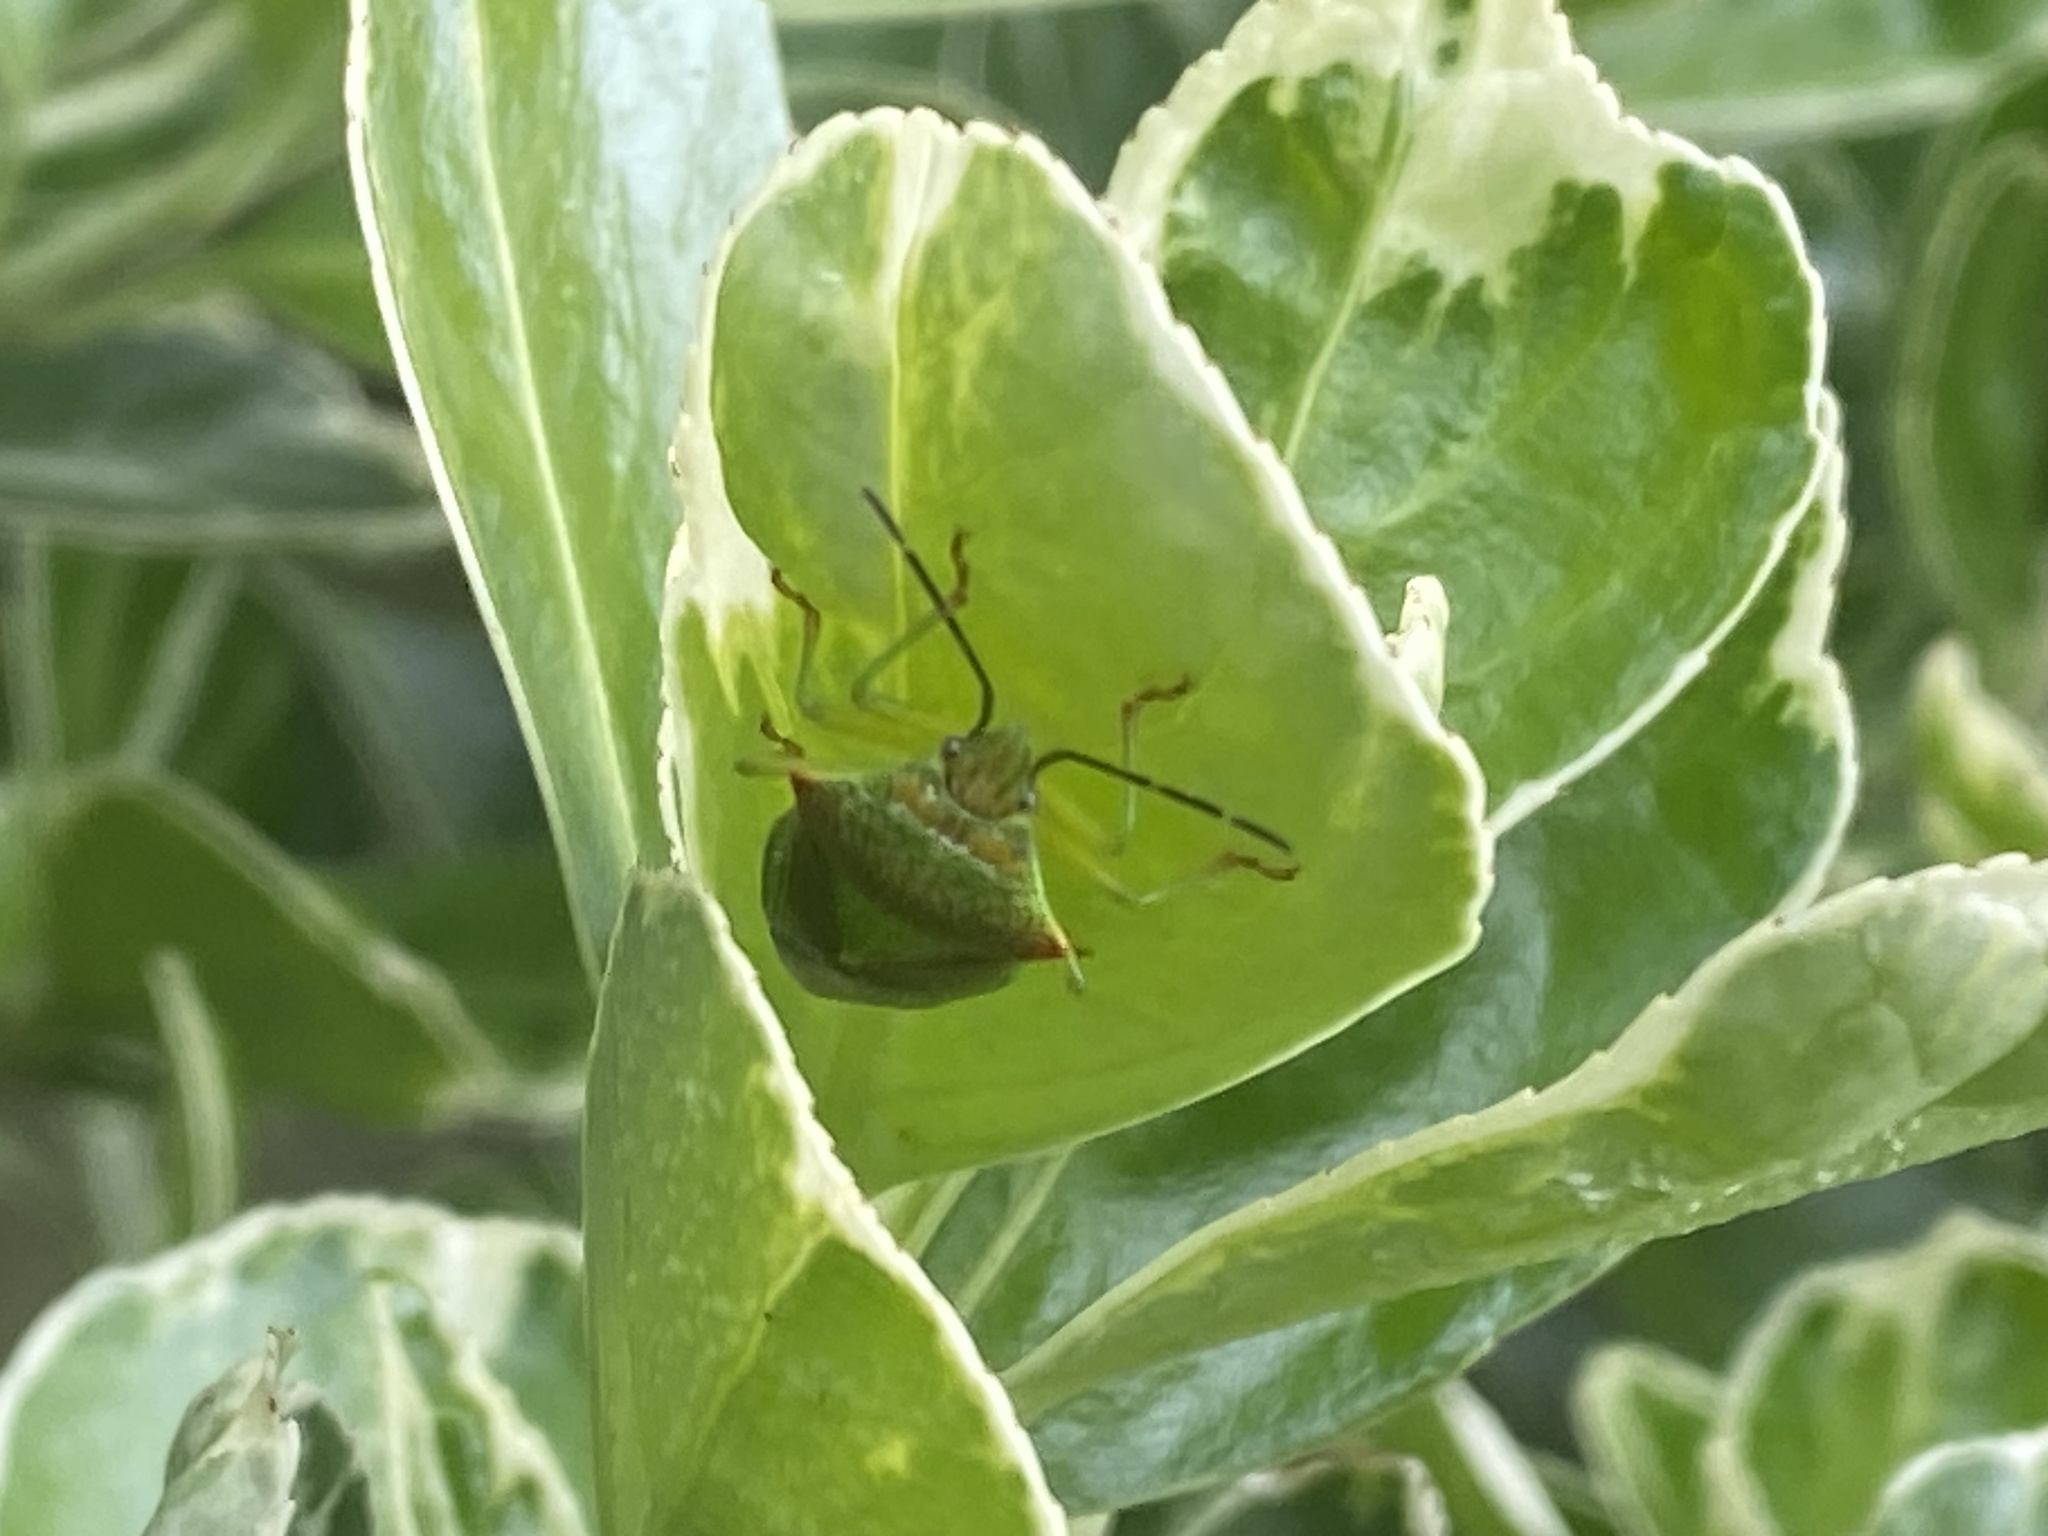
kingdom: Animalia
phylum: Arthropoda
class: Insecta
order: Hemiptera
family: Acanthosomatidae
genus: Acanthosoma
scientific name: Acanthosoma haemorrhoidale
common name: Hawthorn shieldbug
